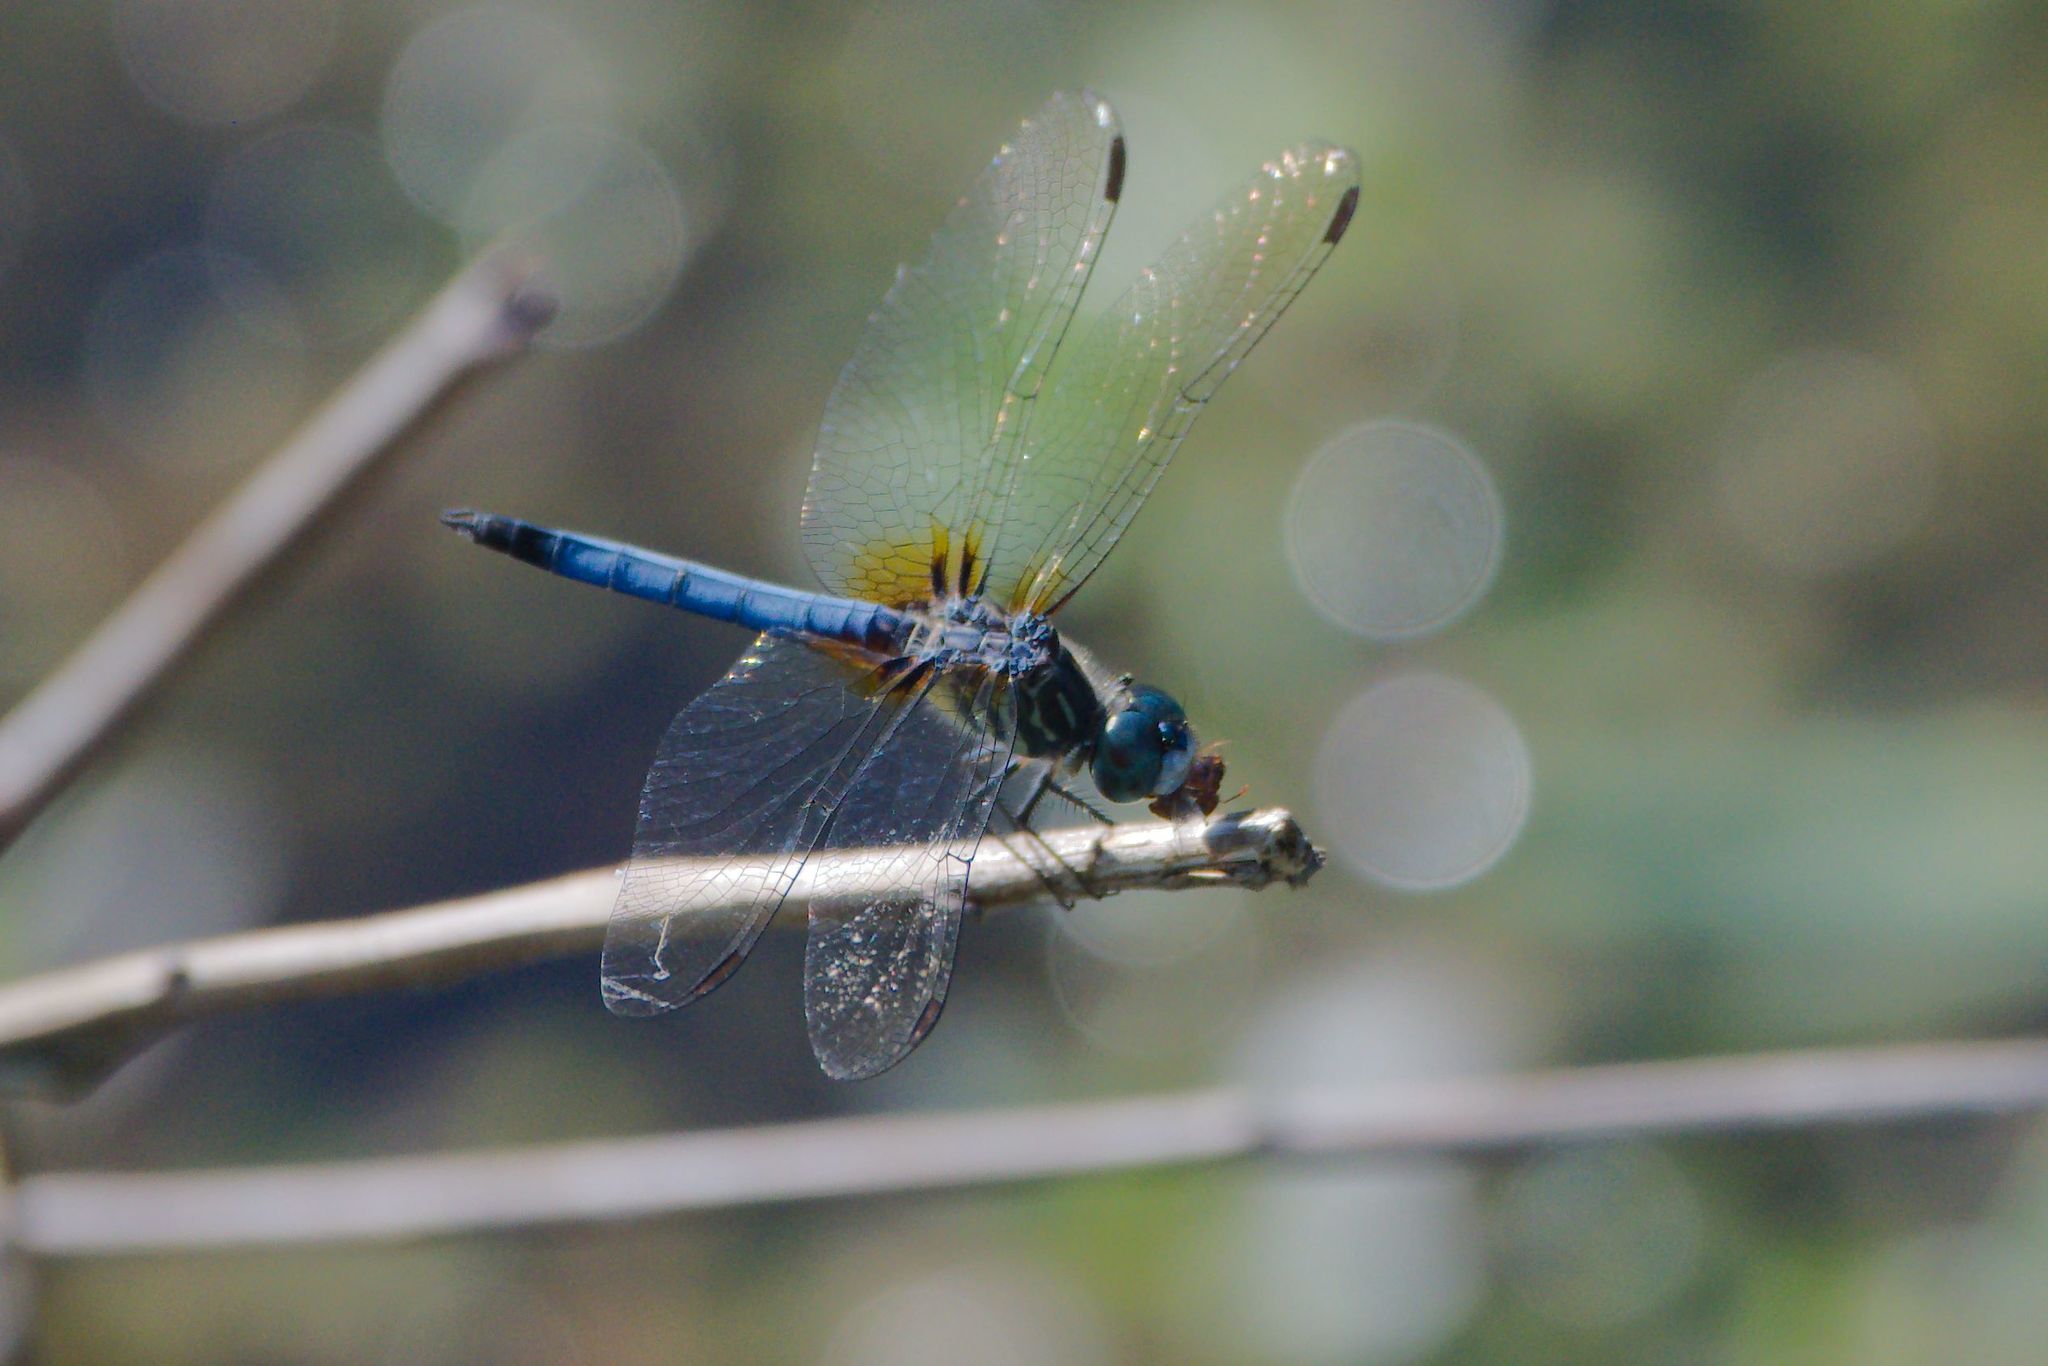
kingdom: Animalia
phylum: Arthropoda
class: Insecta
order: Odonata
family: Libellulidae
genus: Pachydiplax
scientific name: Pachydiplax longipennis
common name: Blue dasher
